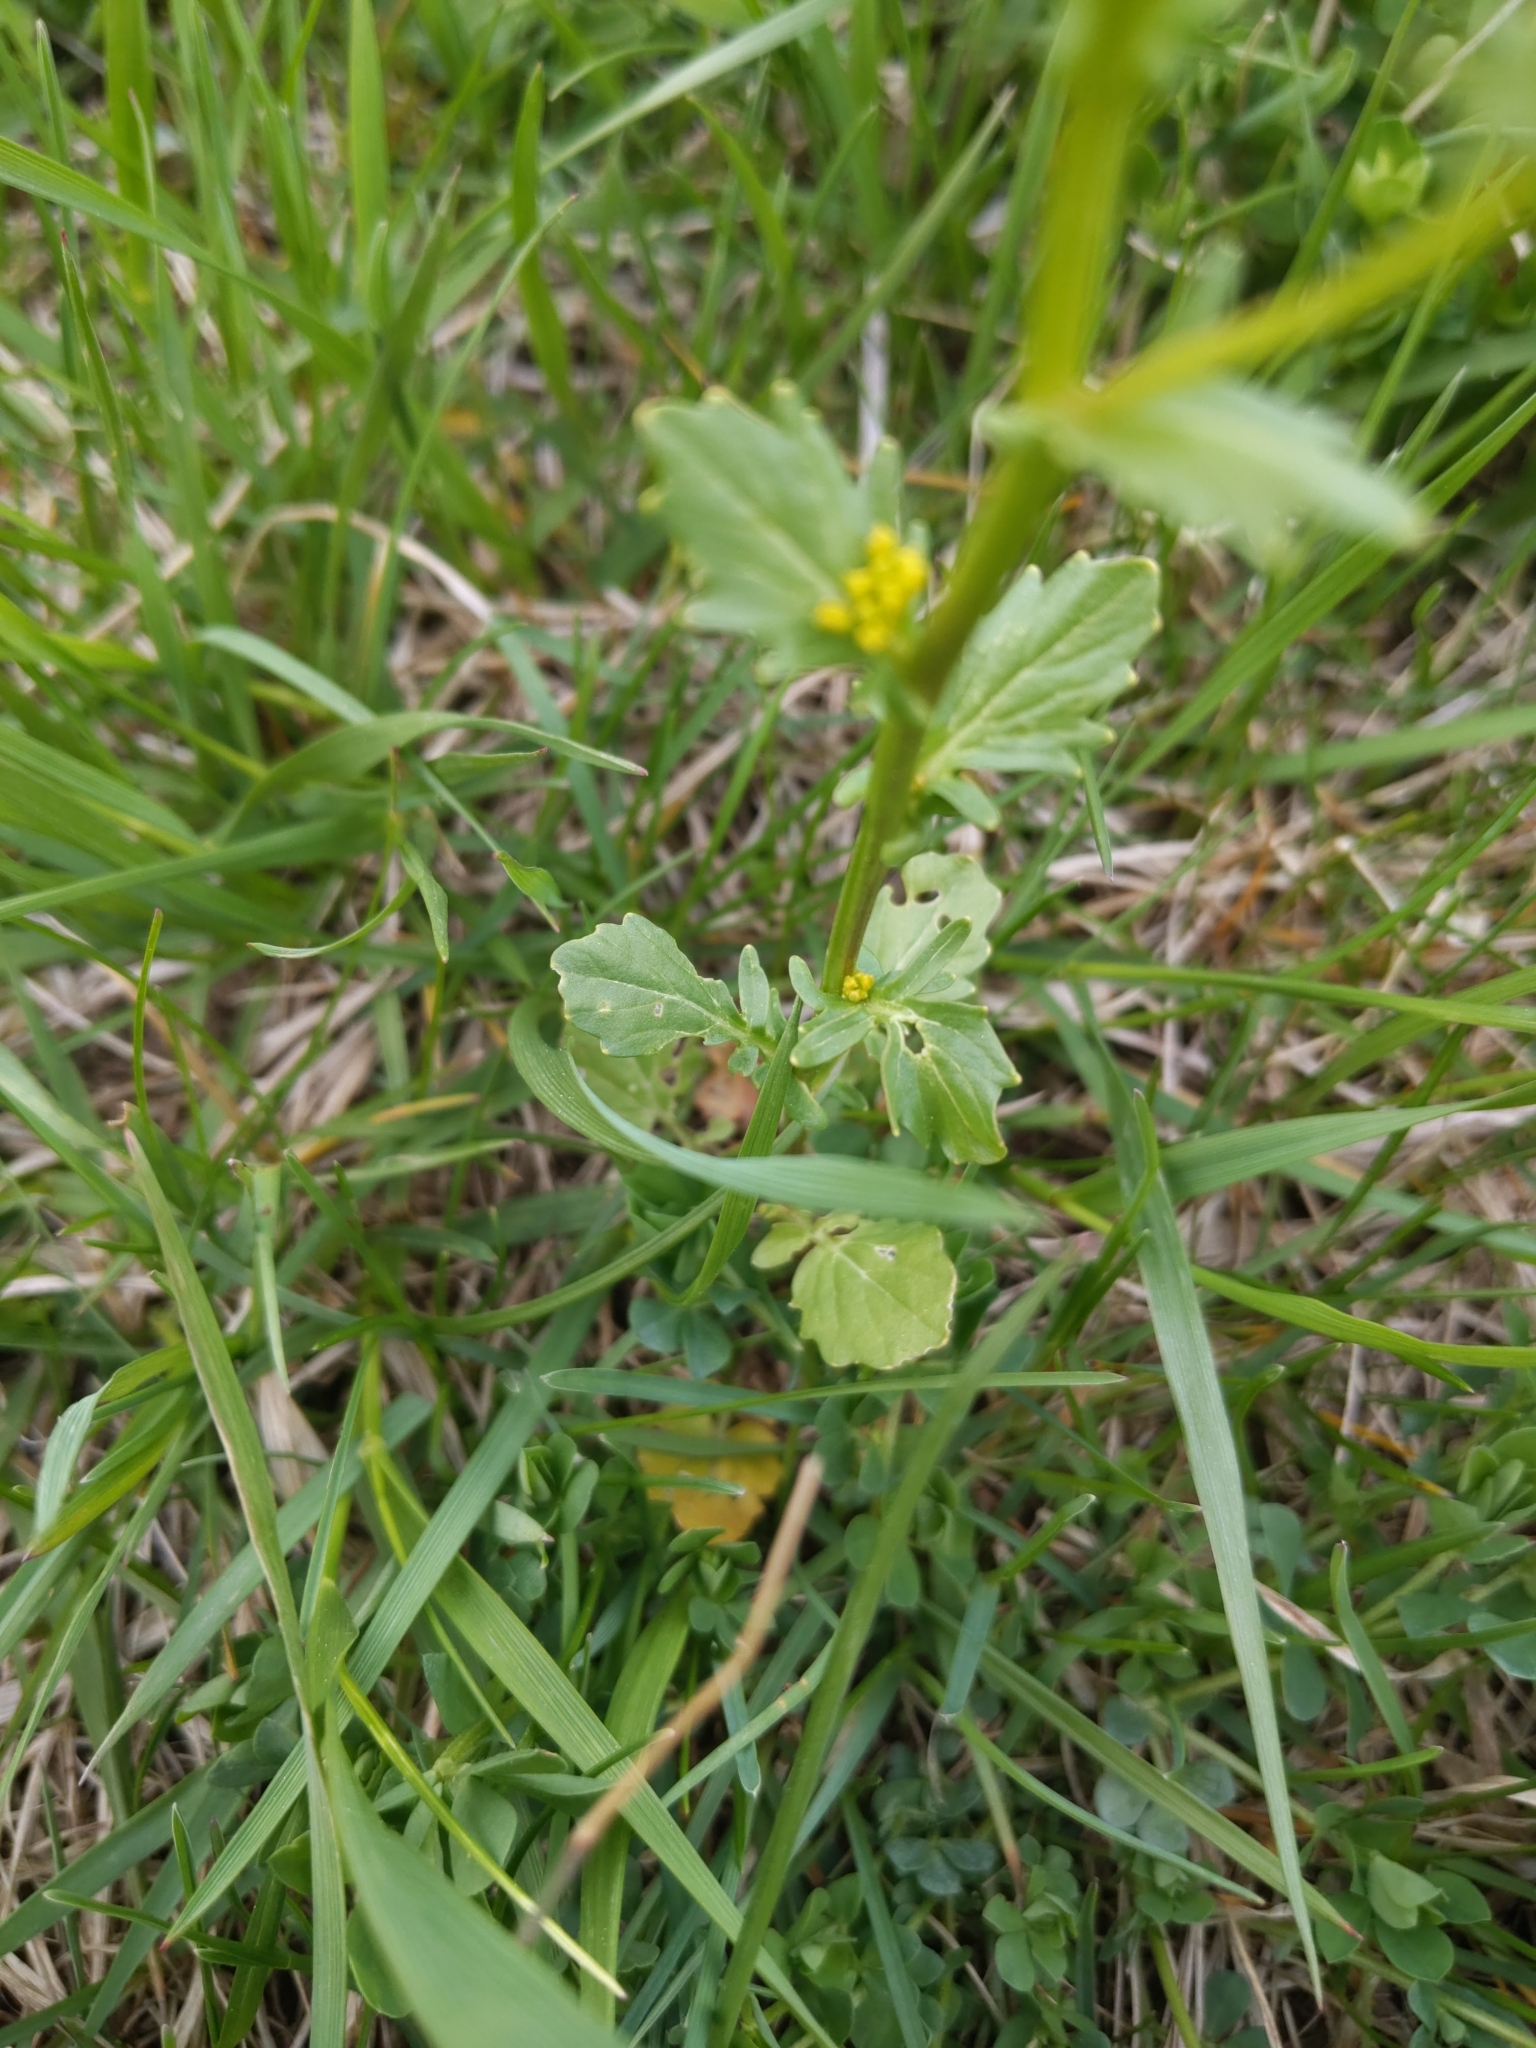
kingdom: Plantae
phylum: Tracheophyta
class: Magnoliopsida
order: Brassicales
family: Brassicaceae
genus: Barbarea
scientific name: Barbarea vulgaris
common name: Cressy-greens
